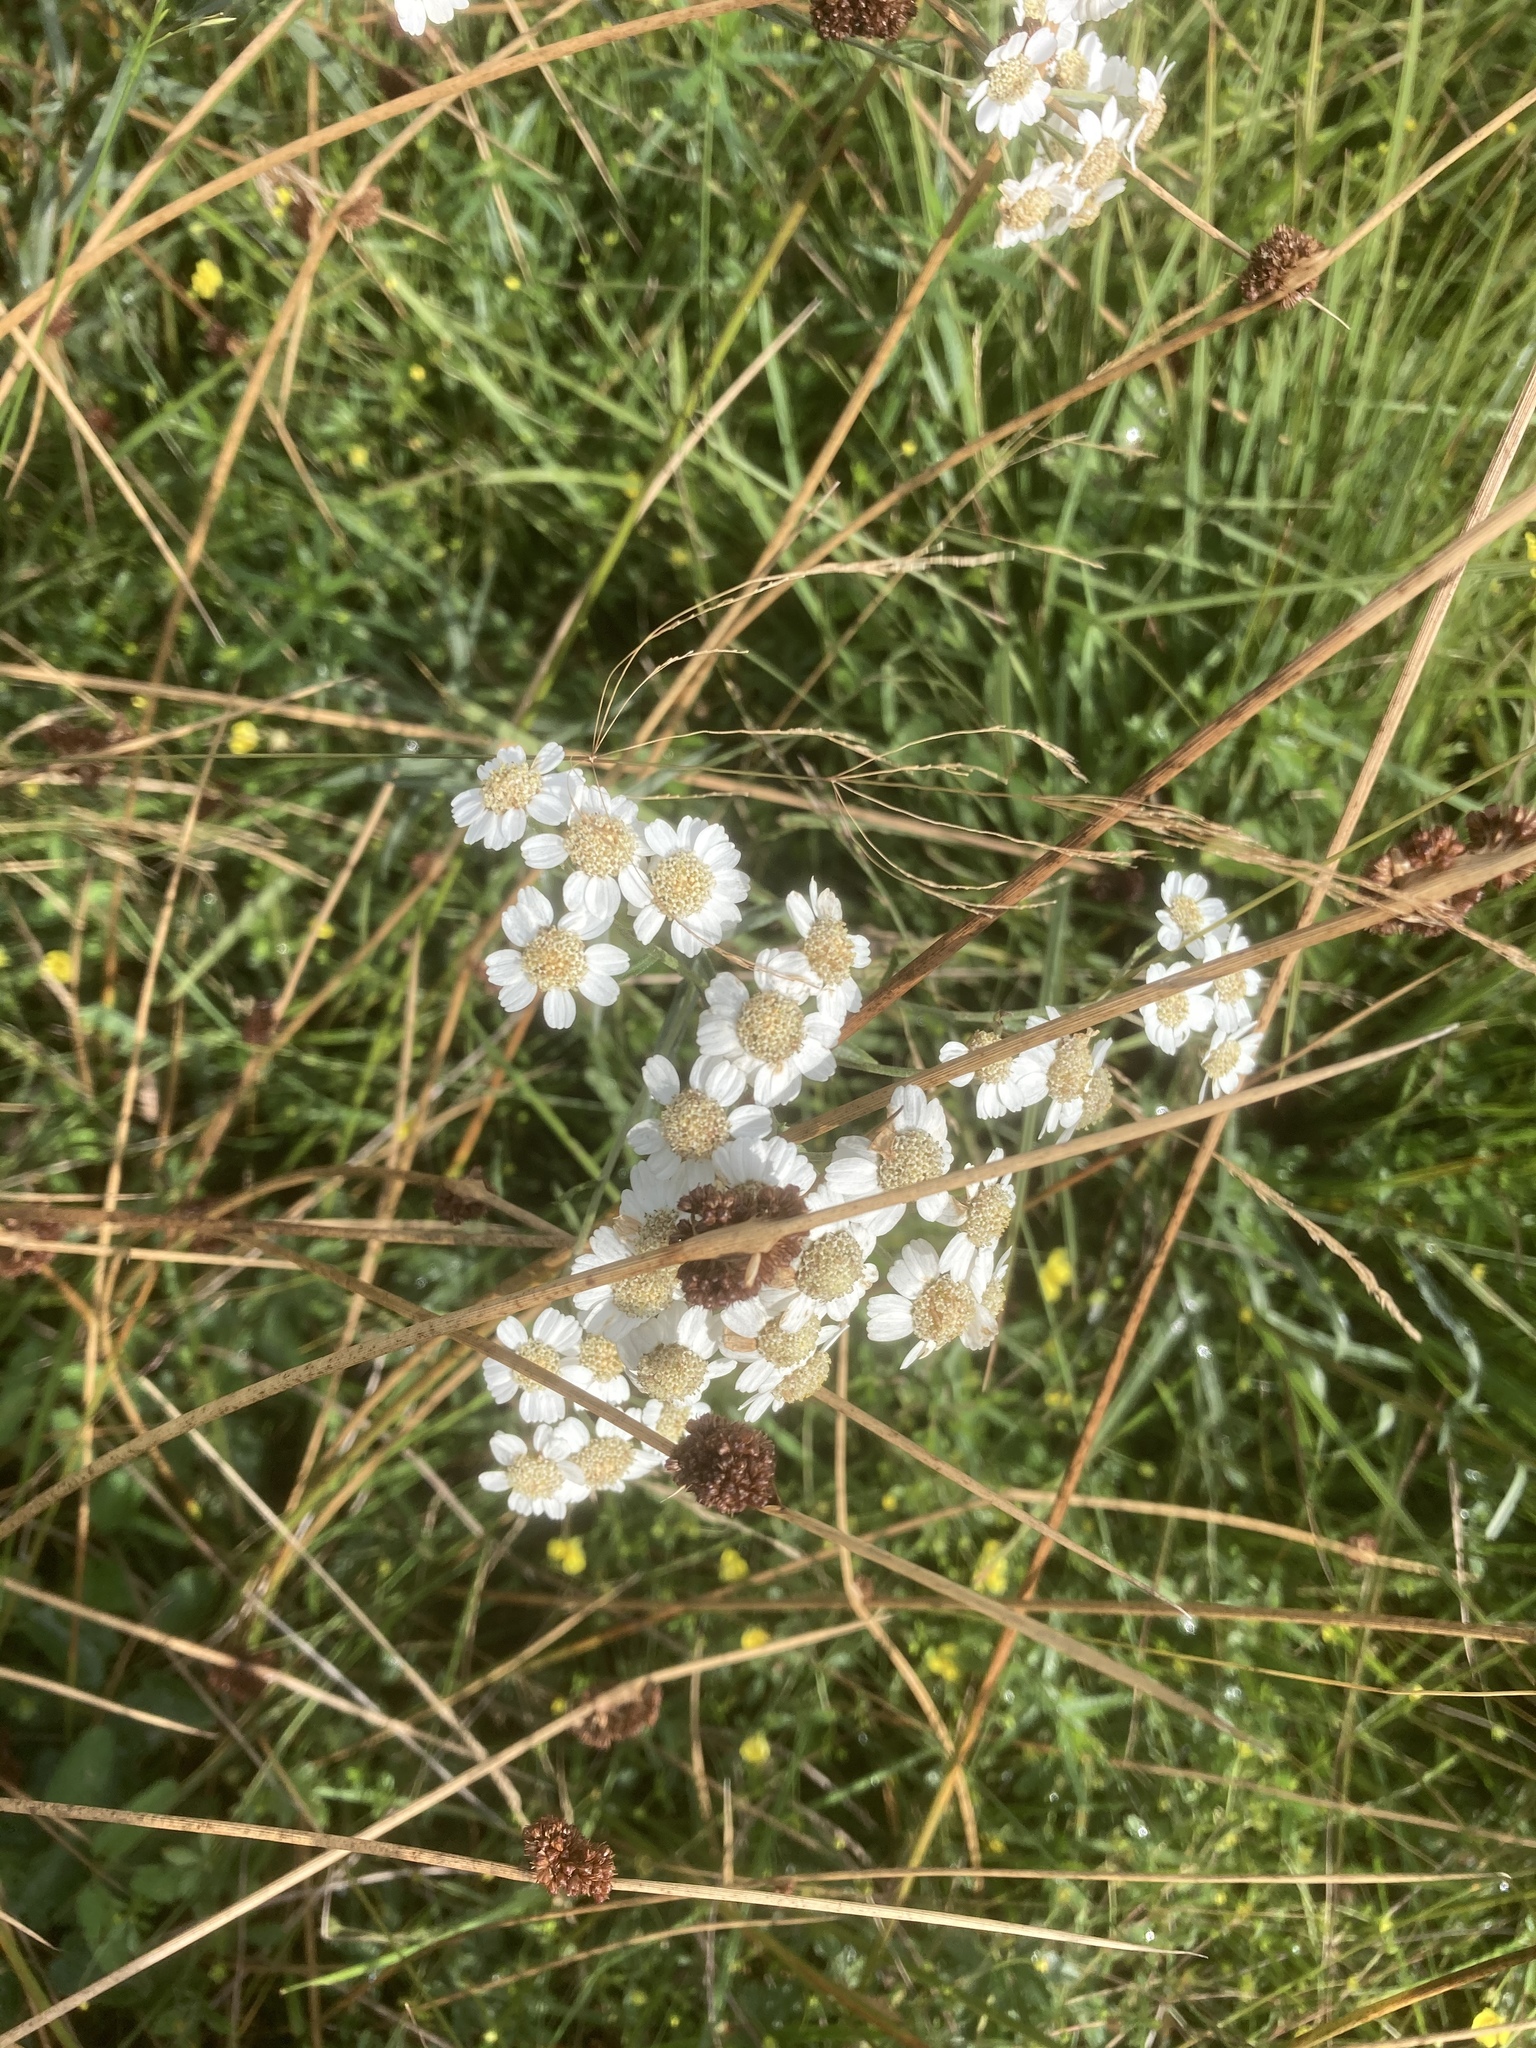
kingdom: Plantae
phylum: Tracheophyta
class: Magnoliopsida
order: Asterales
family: Asteraceae
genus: Achillea
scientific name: Achillea ptarmica
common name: Sneezeweed
